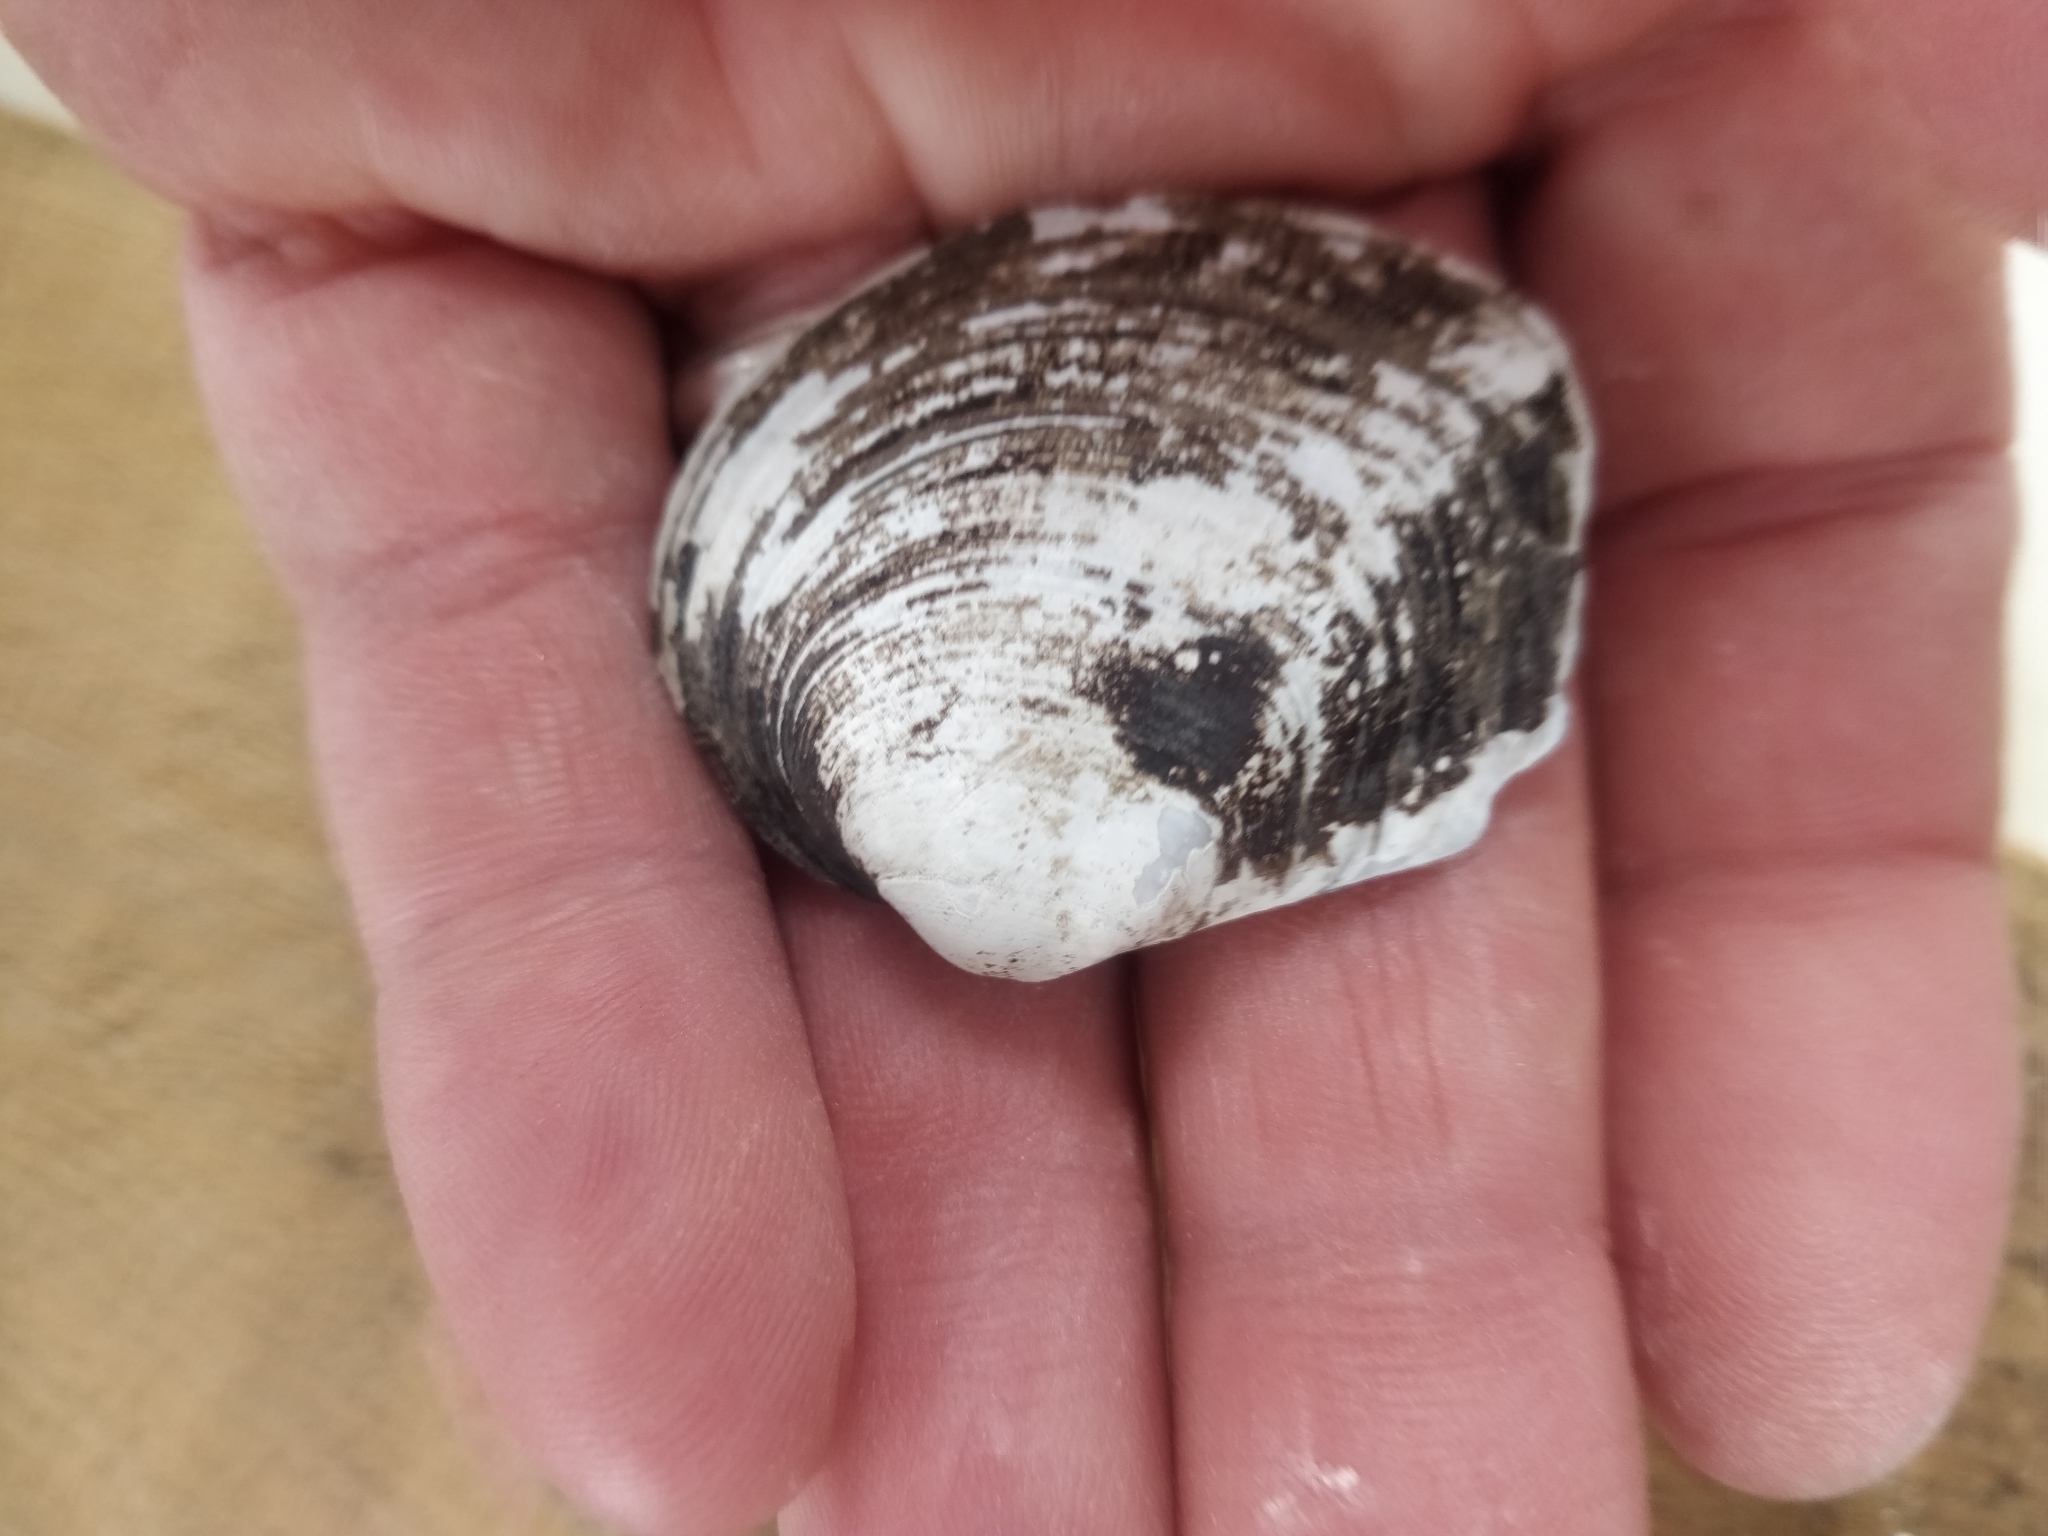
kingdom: Animalia
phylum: Mollusca
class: Bivalvia
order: Unionida
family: Unionidae
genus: Fusconaia
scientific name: Fusconaia flava
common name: Wabash pigtoe
